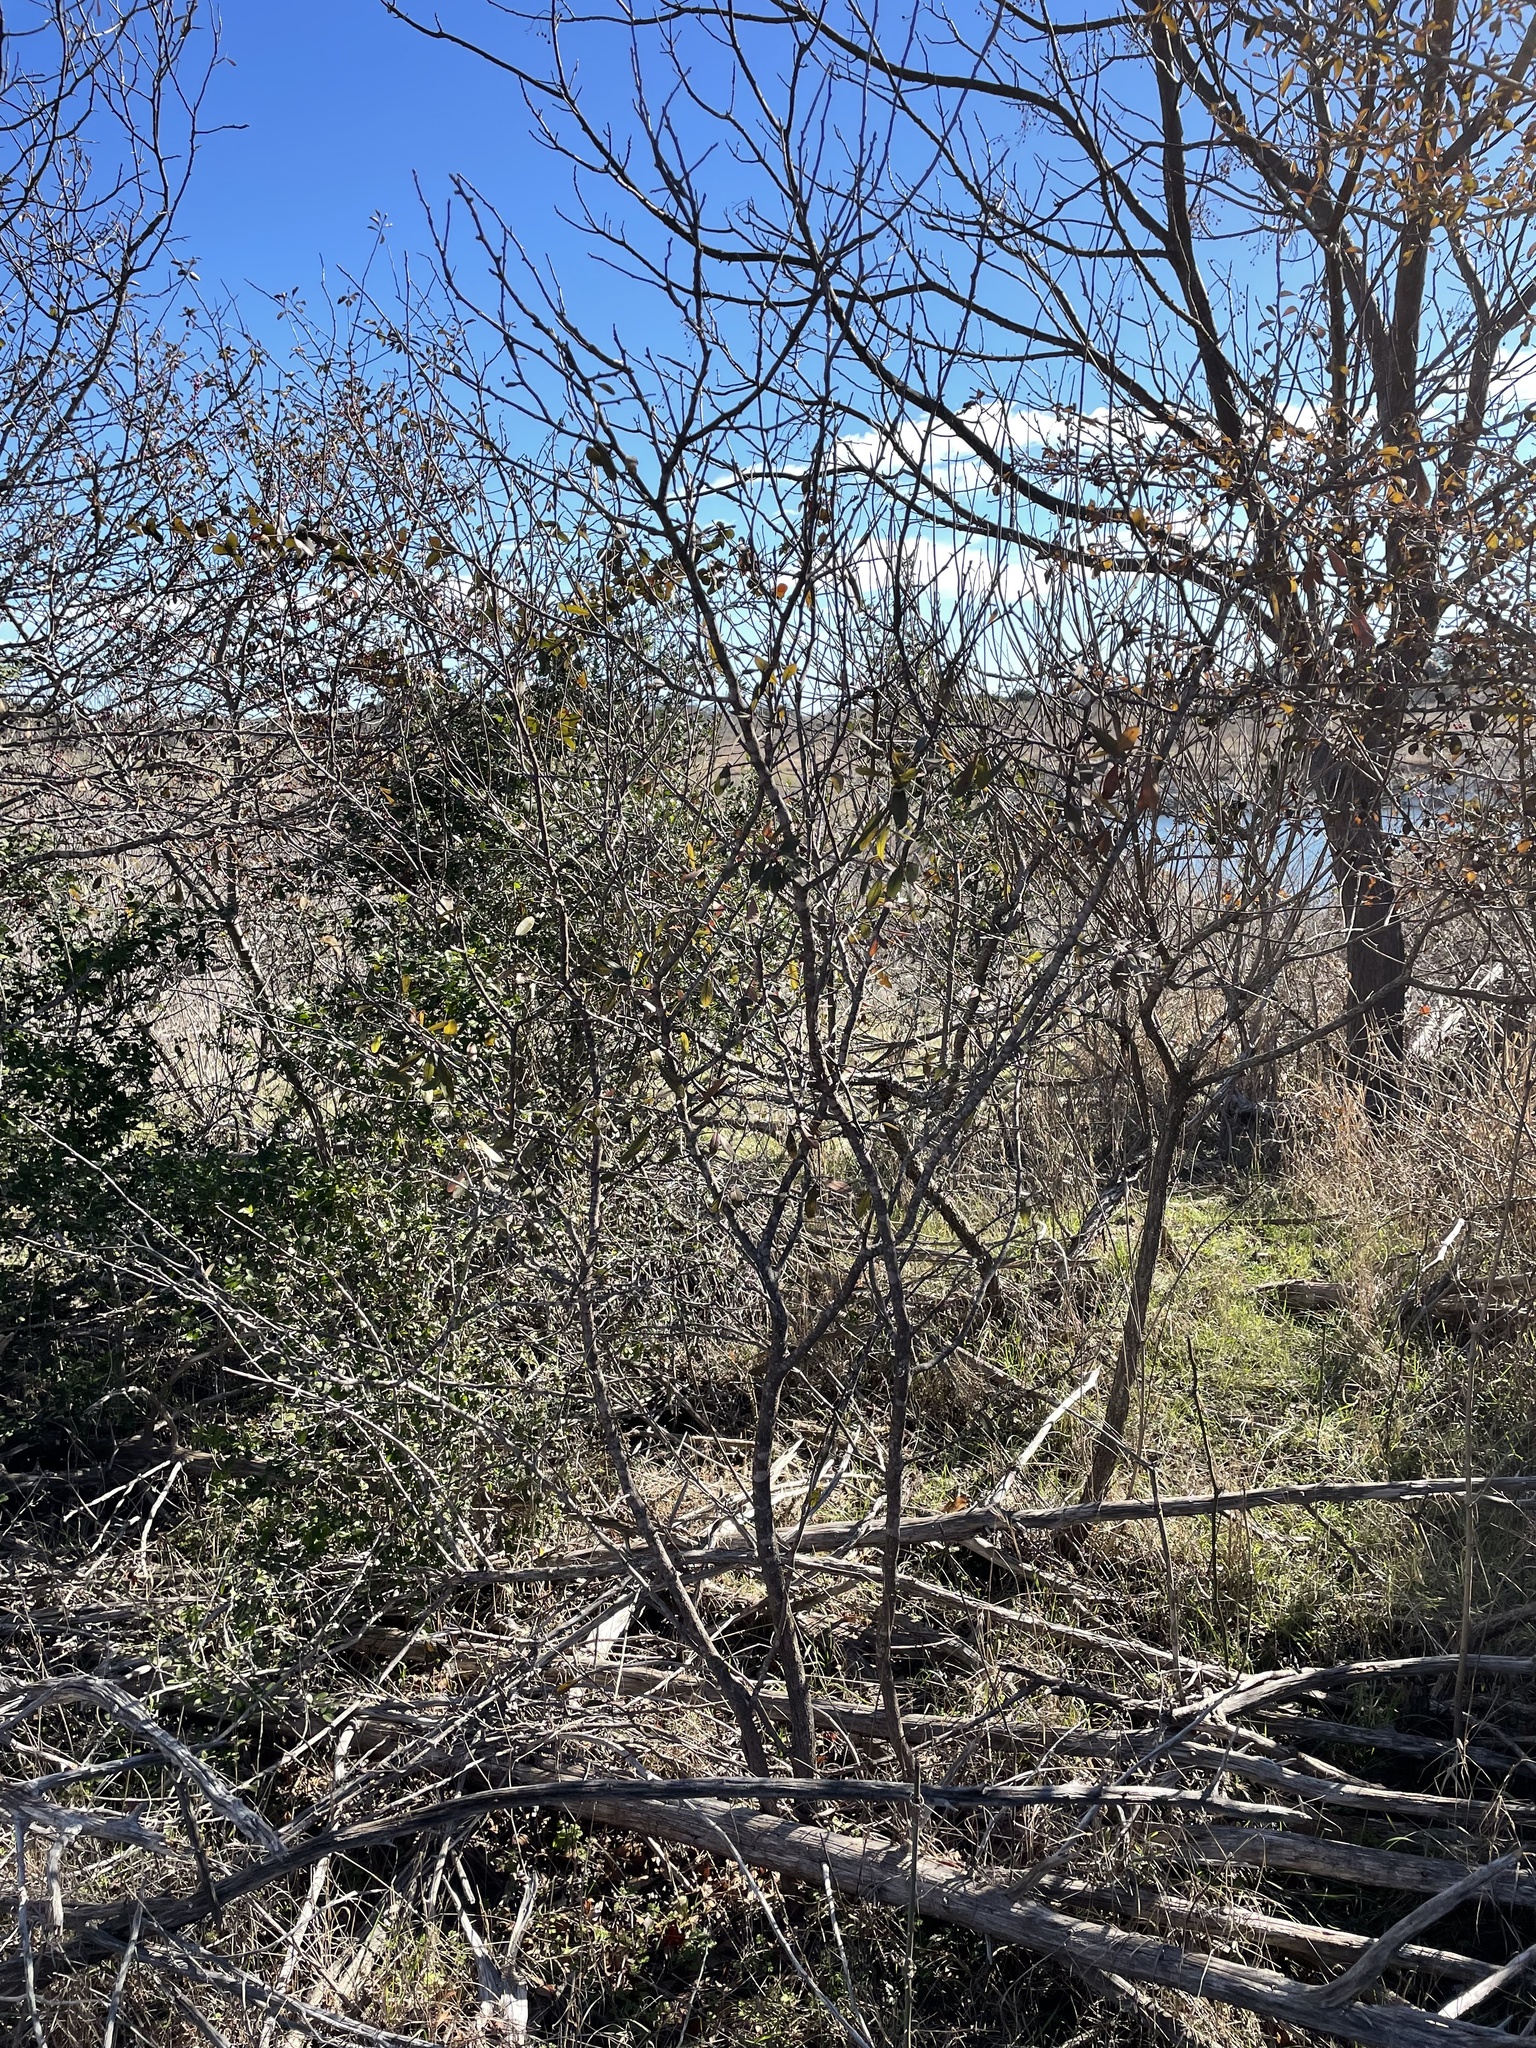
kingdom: Plantae
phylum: Tracheophyta
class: Magnoliopsida
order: Ericales
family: Sapotaceae
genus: Sideroxylon
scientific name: Sideroxylon lanuginosum
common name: Chittamwood
